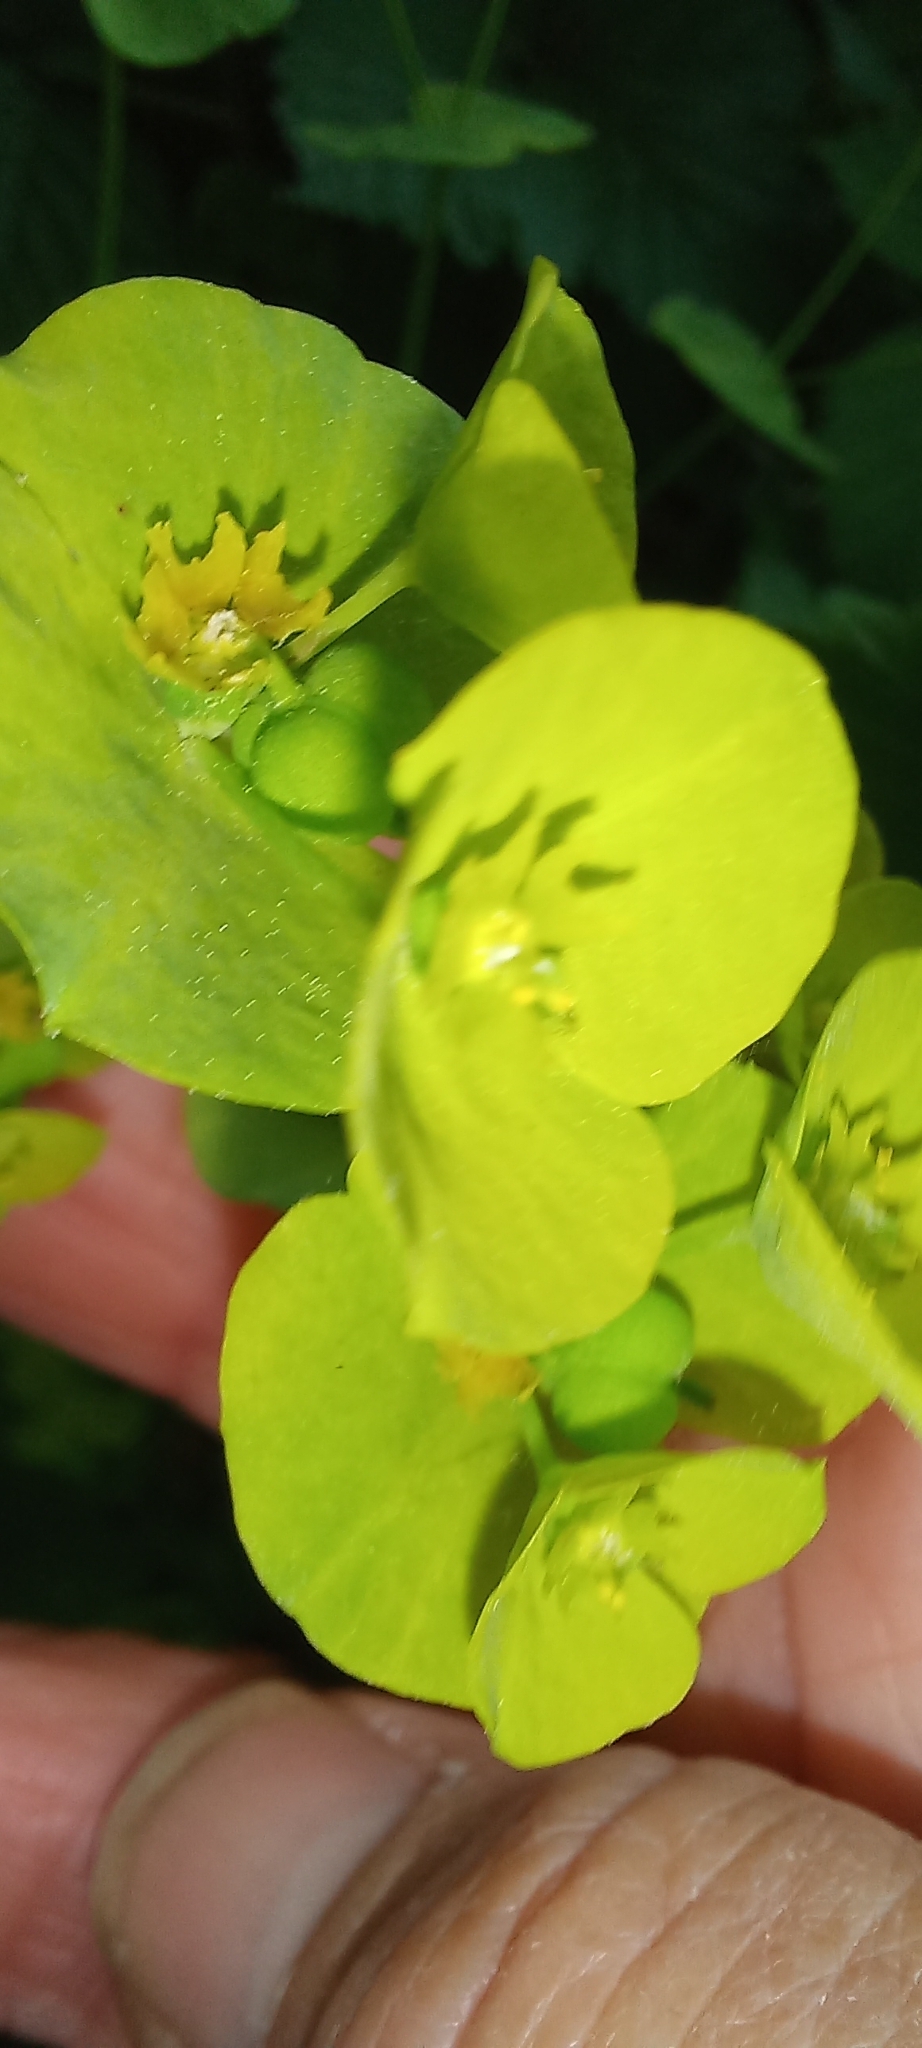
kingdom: Plantae
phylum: Tracheophyta
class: Magnoliopsida
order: Malpighiales
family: Euphorbiaceae
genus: Euphorbia
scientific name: Euphorbia amygdaloides
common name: Wood spurge
